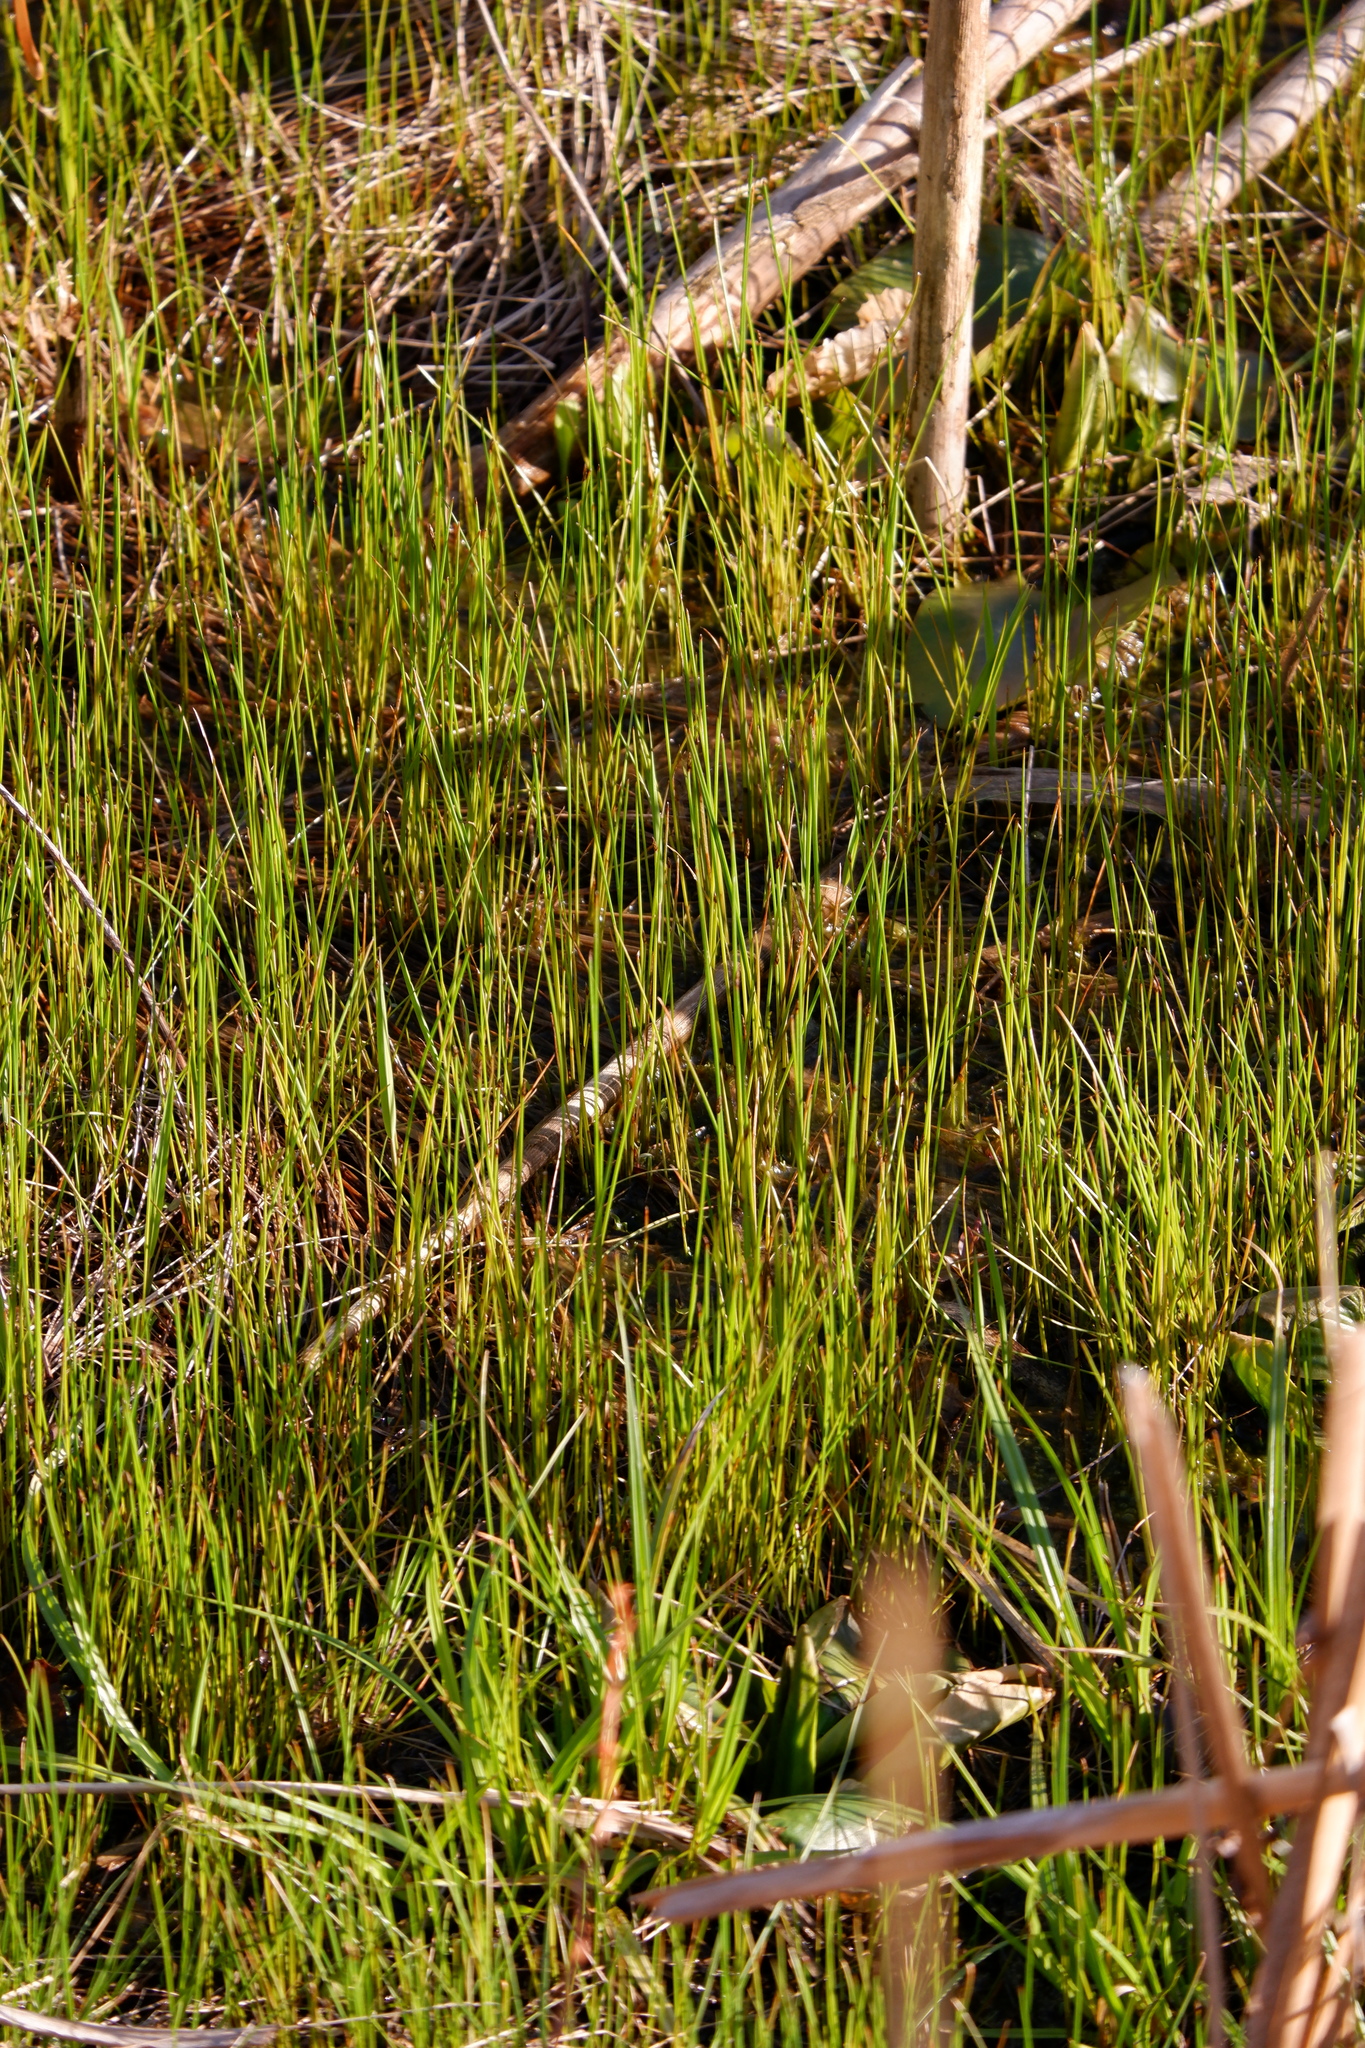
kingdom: Plantae
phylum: Tracheophyta
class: Liliopsida
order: Poales
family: Cyperaceae
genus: Eleocharis
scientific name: Eleocharis palustris
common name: Common spike-rush
